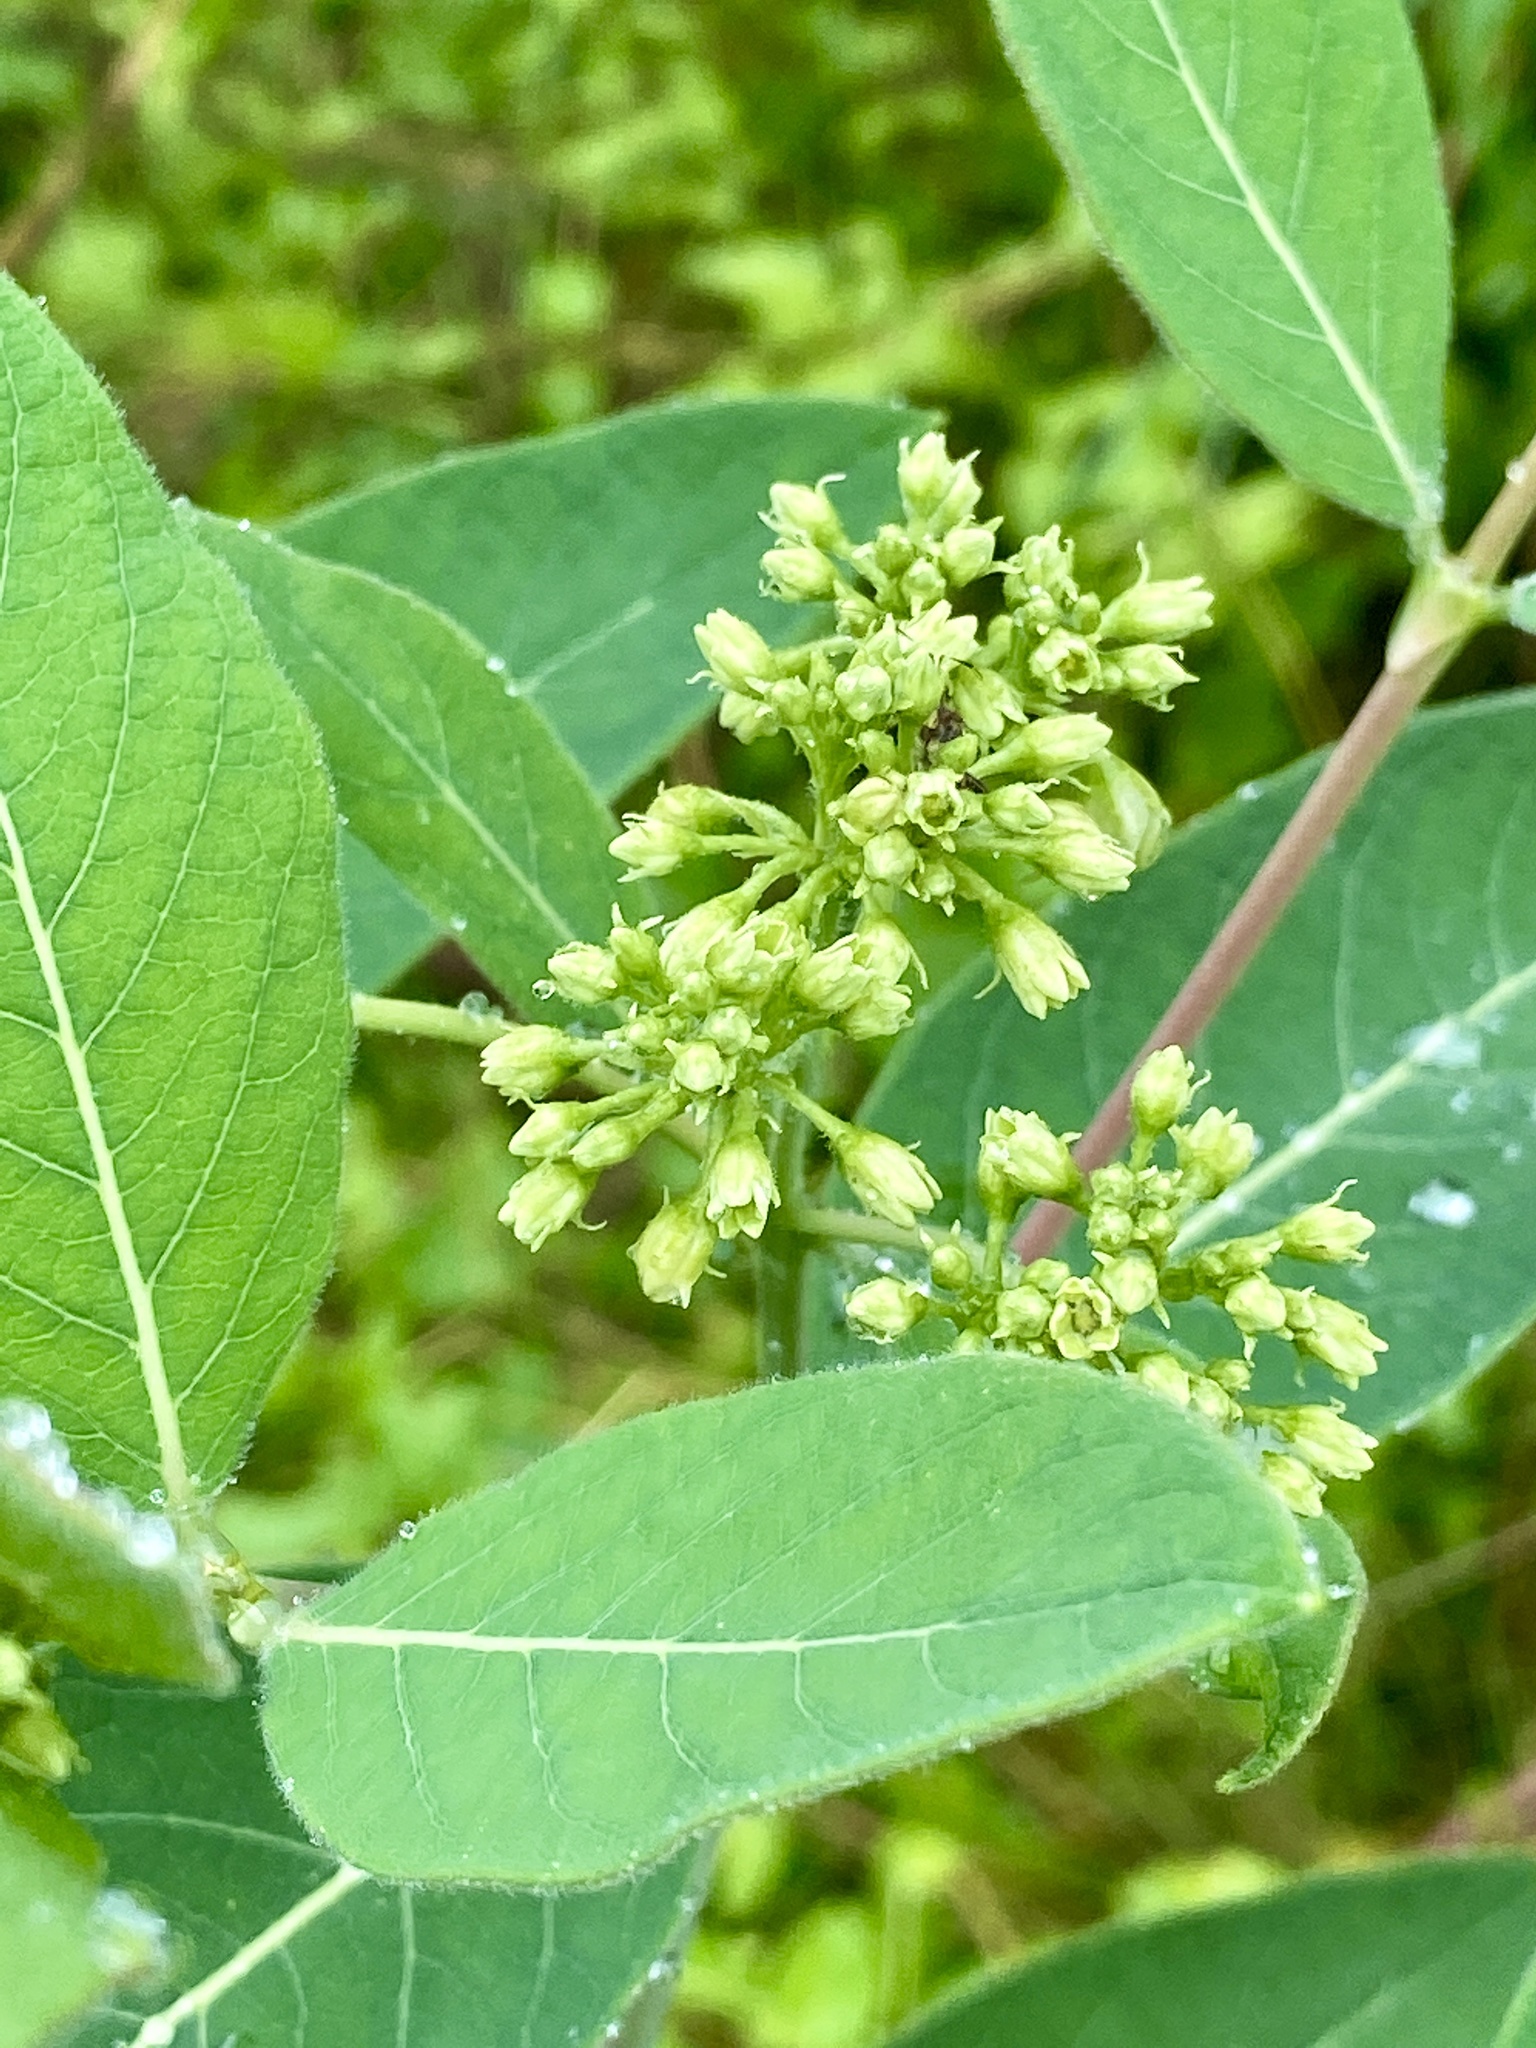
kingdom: Plantae
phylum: Tracheophyta
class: Magnoliopsida
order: Gentianales
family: Apocynaceae
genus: Apocynum
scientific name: Apocynum cannabinum
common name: Hemp dogbane
